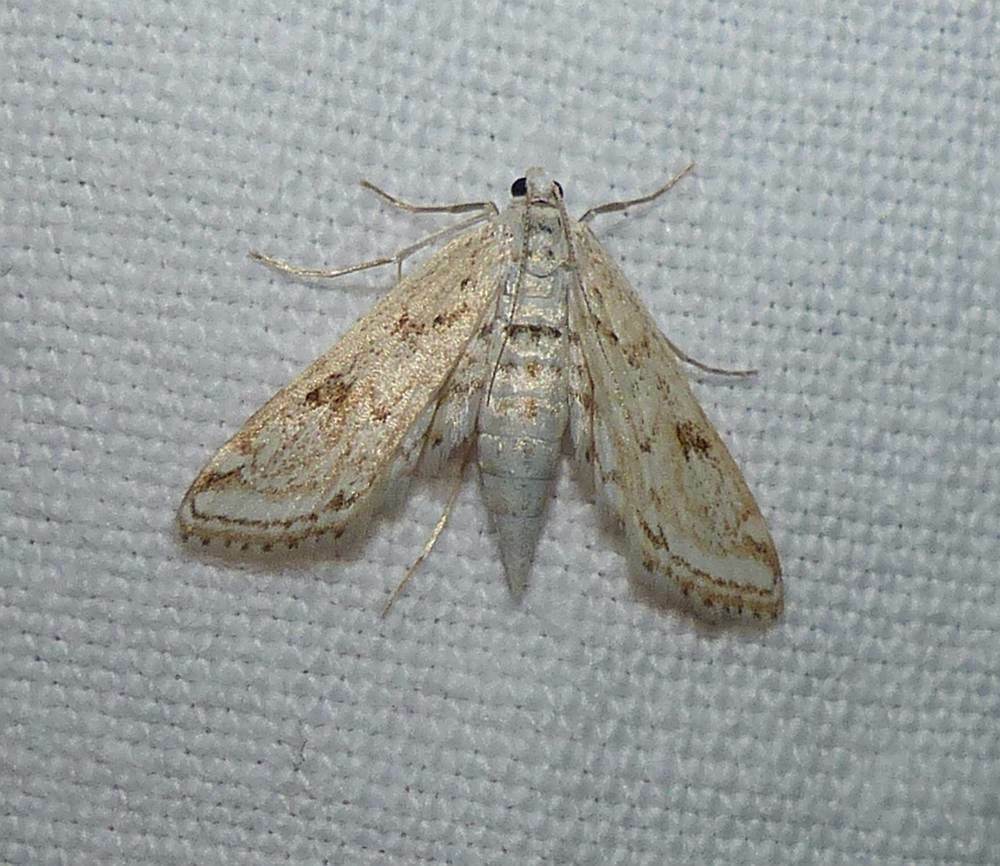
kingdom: Animalia
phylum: Arthropoda
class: Insecta
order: Lepidoptera
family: Crambidae
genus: Parapoynx
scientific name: Parapoynx allionealis
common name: Bladderwort casemaker
